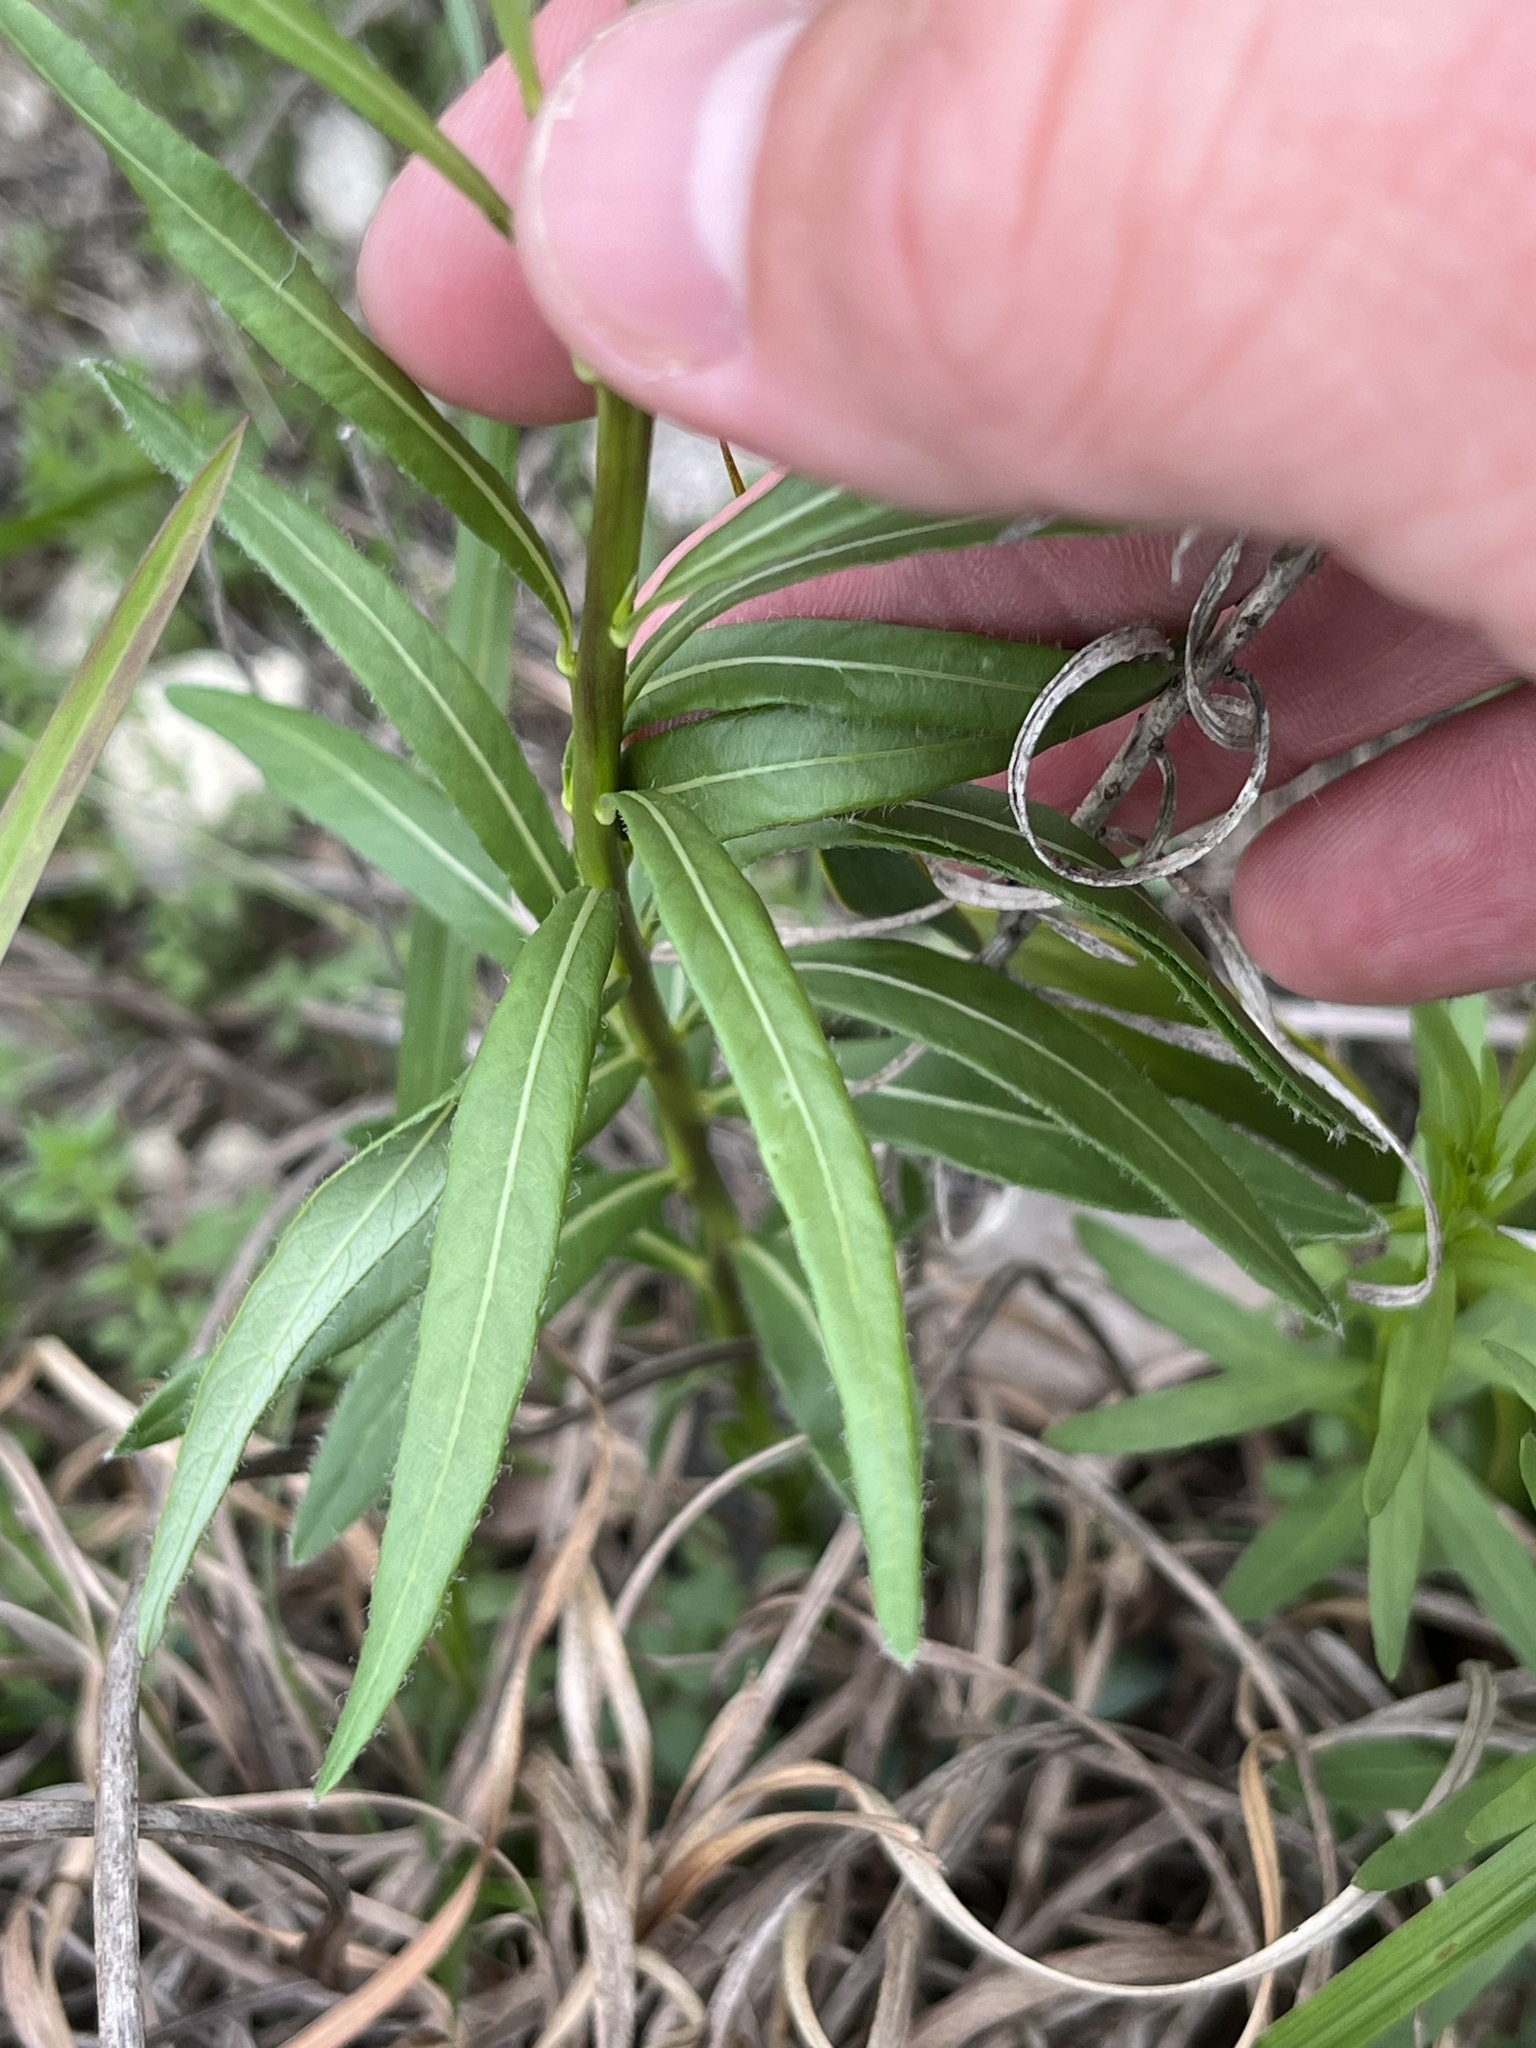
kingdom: Plantae
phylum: Tracheophyta
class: Magnoliopsida
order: Gentianales
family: Apocynaceae
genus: Amsonia
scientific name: Amsonia ciliata
